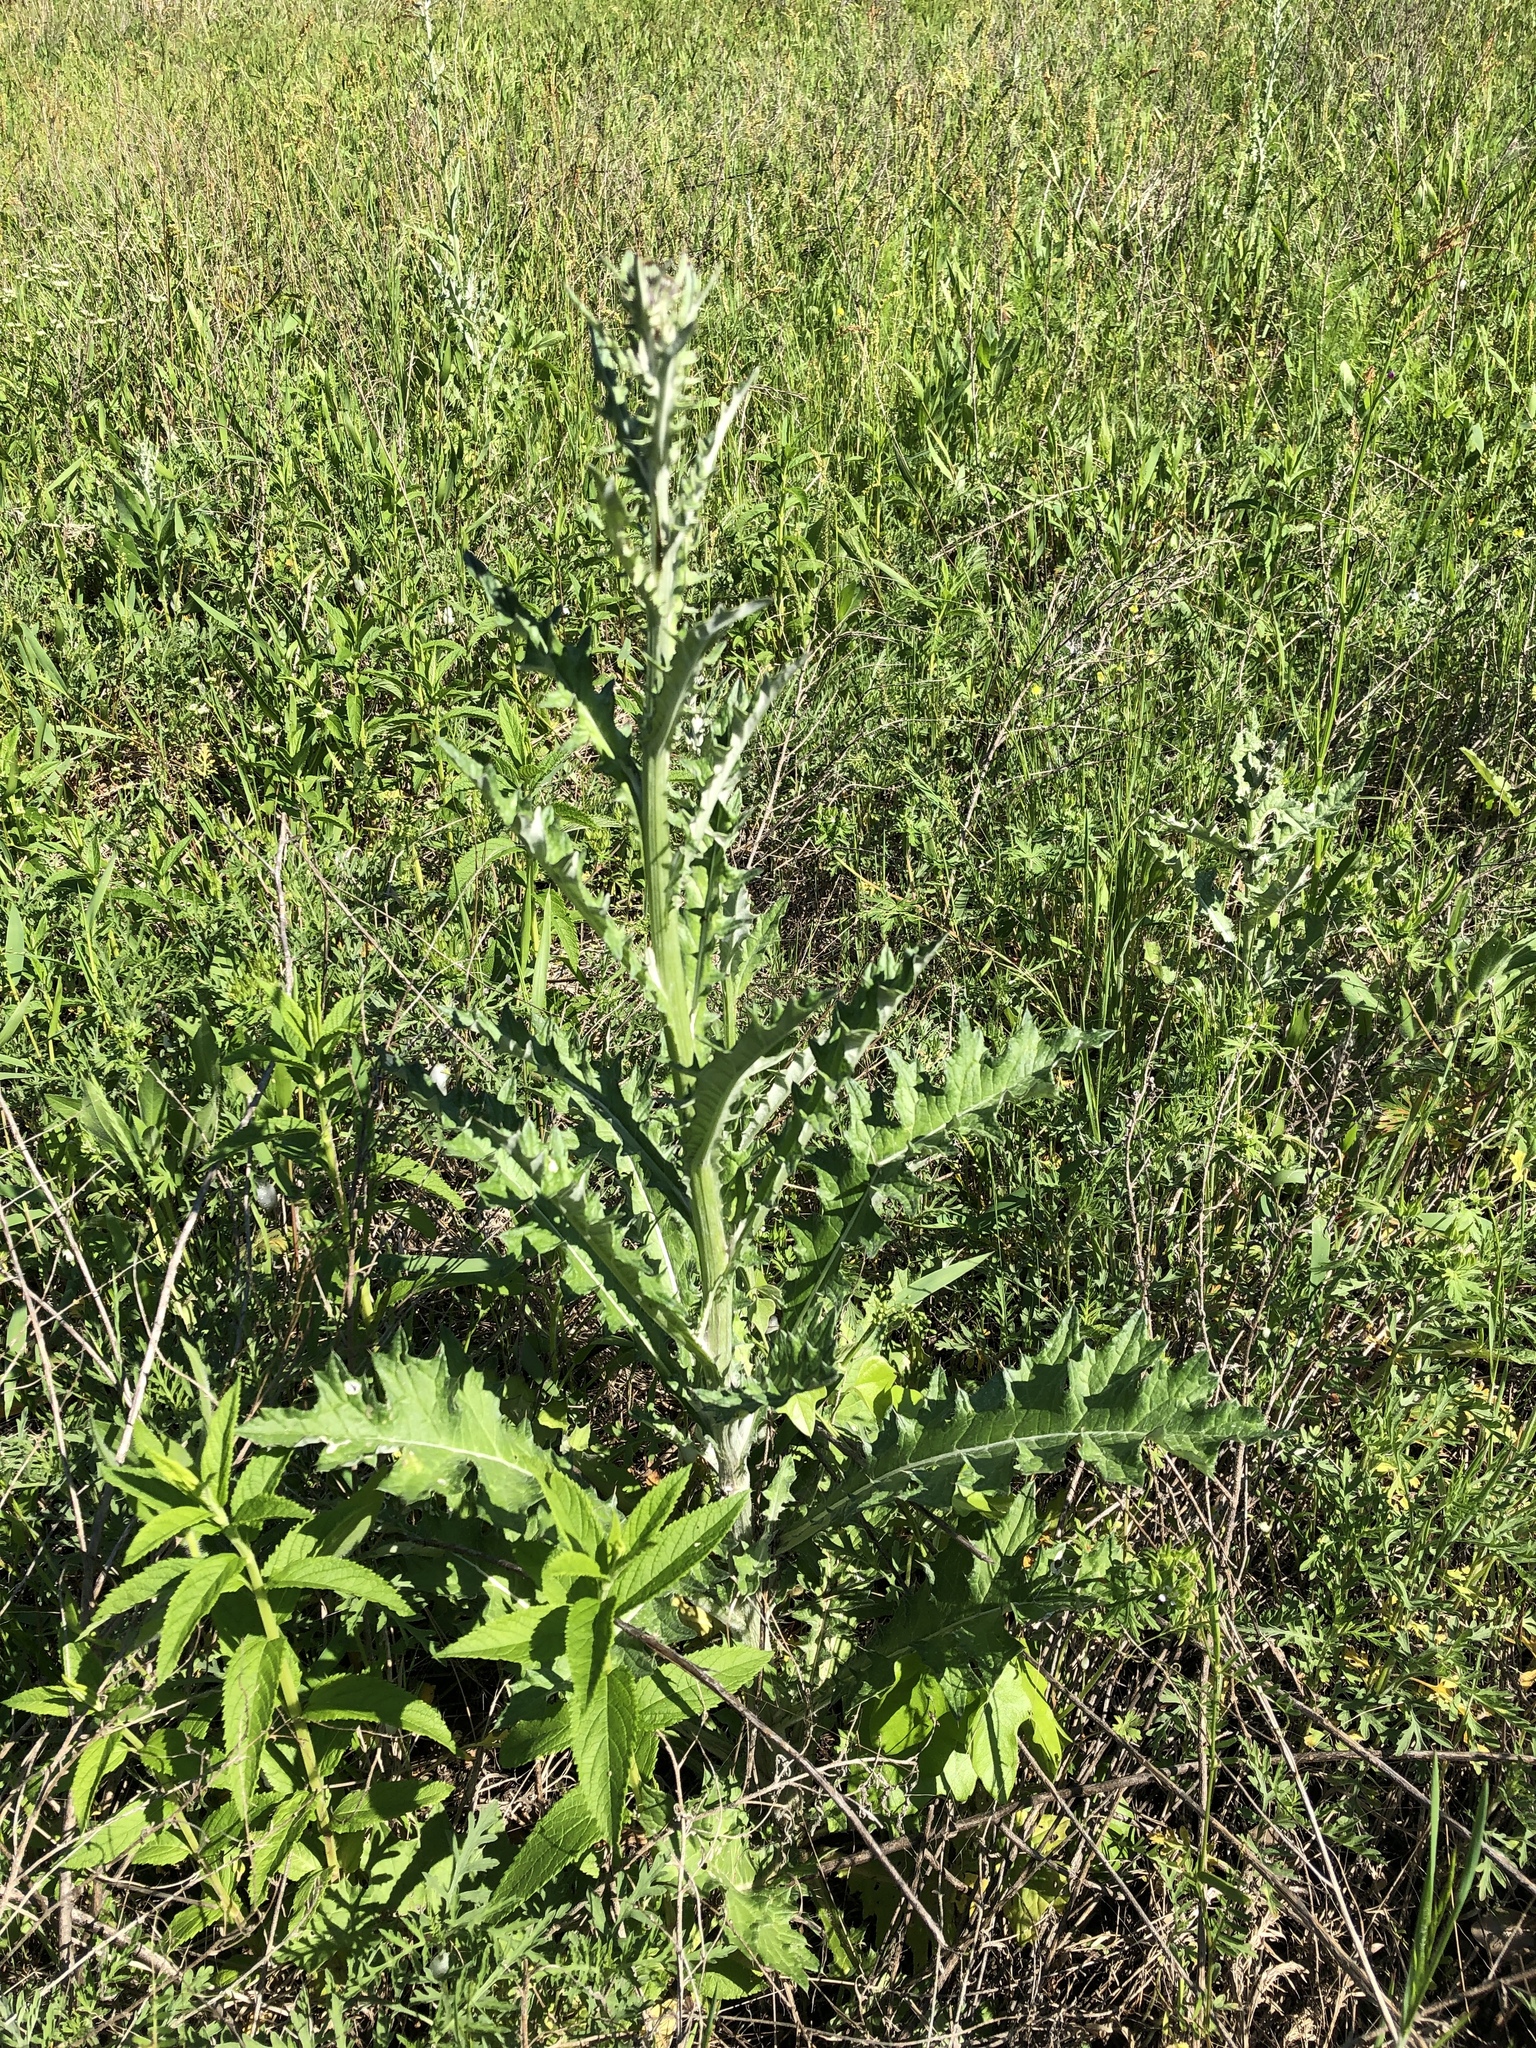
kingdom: Plantae
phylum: Tracheophyta
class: Magnoliopsida
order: Asterales
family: Asteraceae
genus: Cirsium
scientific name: Cirsium undulatum
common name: Pasture thistle
